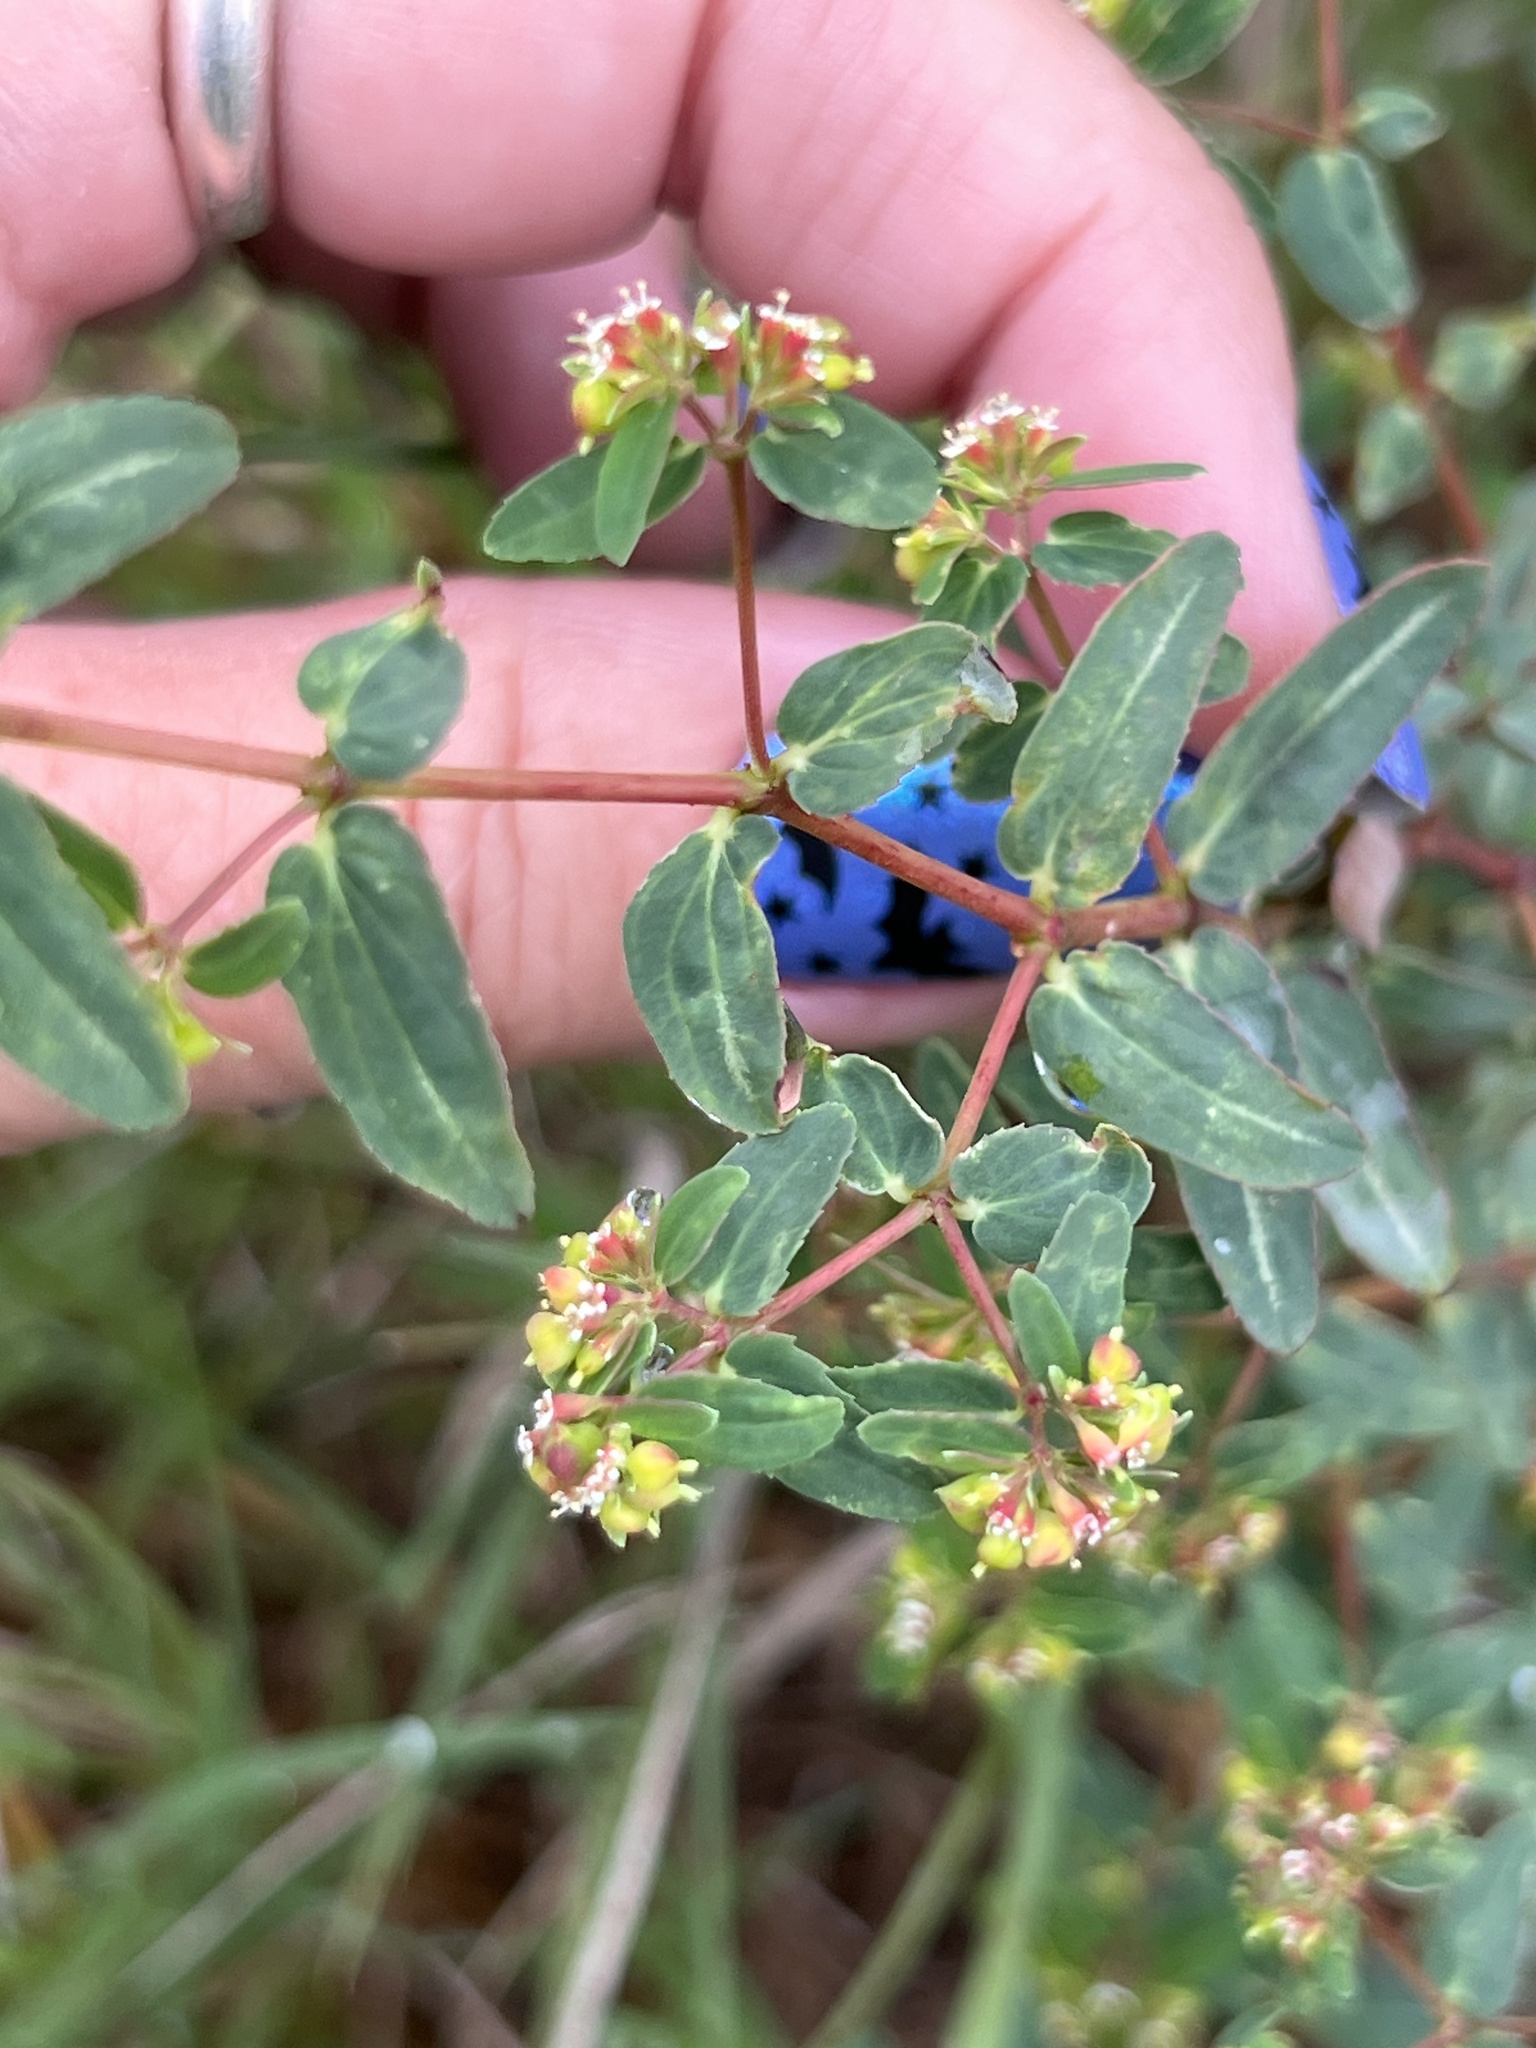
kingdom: Plantae
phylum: Tracheophyta
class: Magnoliopsida
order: Malpighiales
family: Euphorbiaceae
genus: Euphorbia
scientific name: Euphorbia nutans
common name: Eyebane
